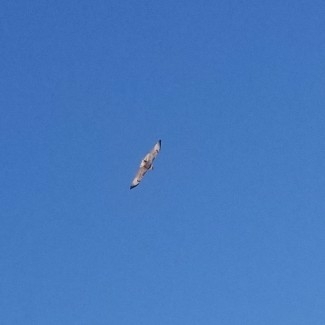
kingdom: Animalia
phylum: Chordata
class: Aves
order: Accipitriformes
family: Accipitridae
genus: Buteo
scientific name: Buteo jamaicensis
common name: Red-tailed hawk
